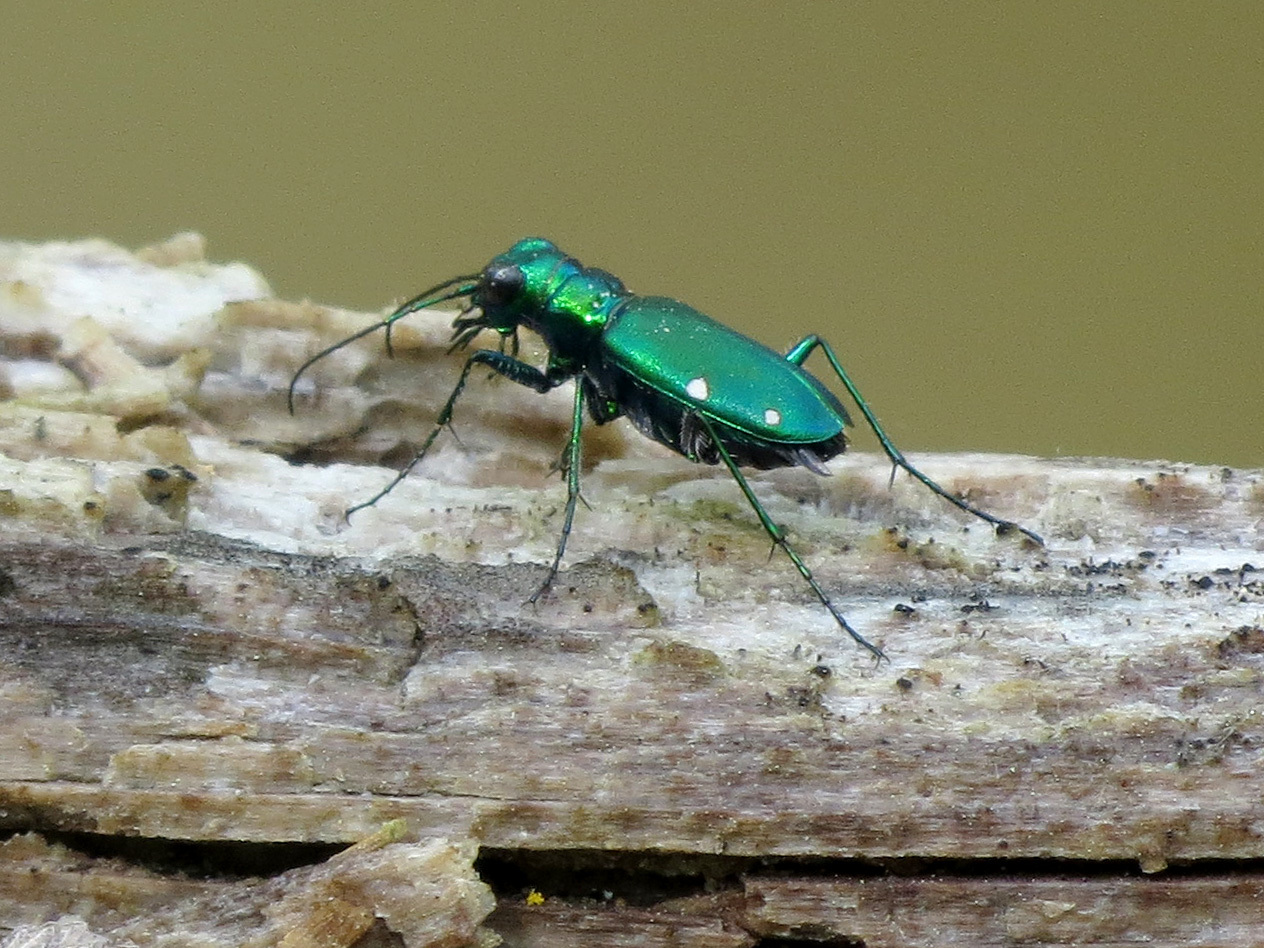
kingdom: Animalia
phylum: Arthropoda
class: Insecta
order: Coleoptera
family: Carabidae
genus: Cicindela
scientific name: Cicindela sexguttata
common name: Six-spotted tiger beetle
